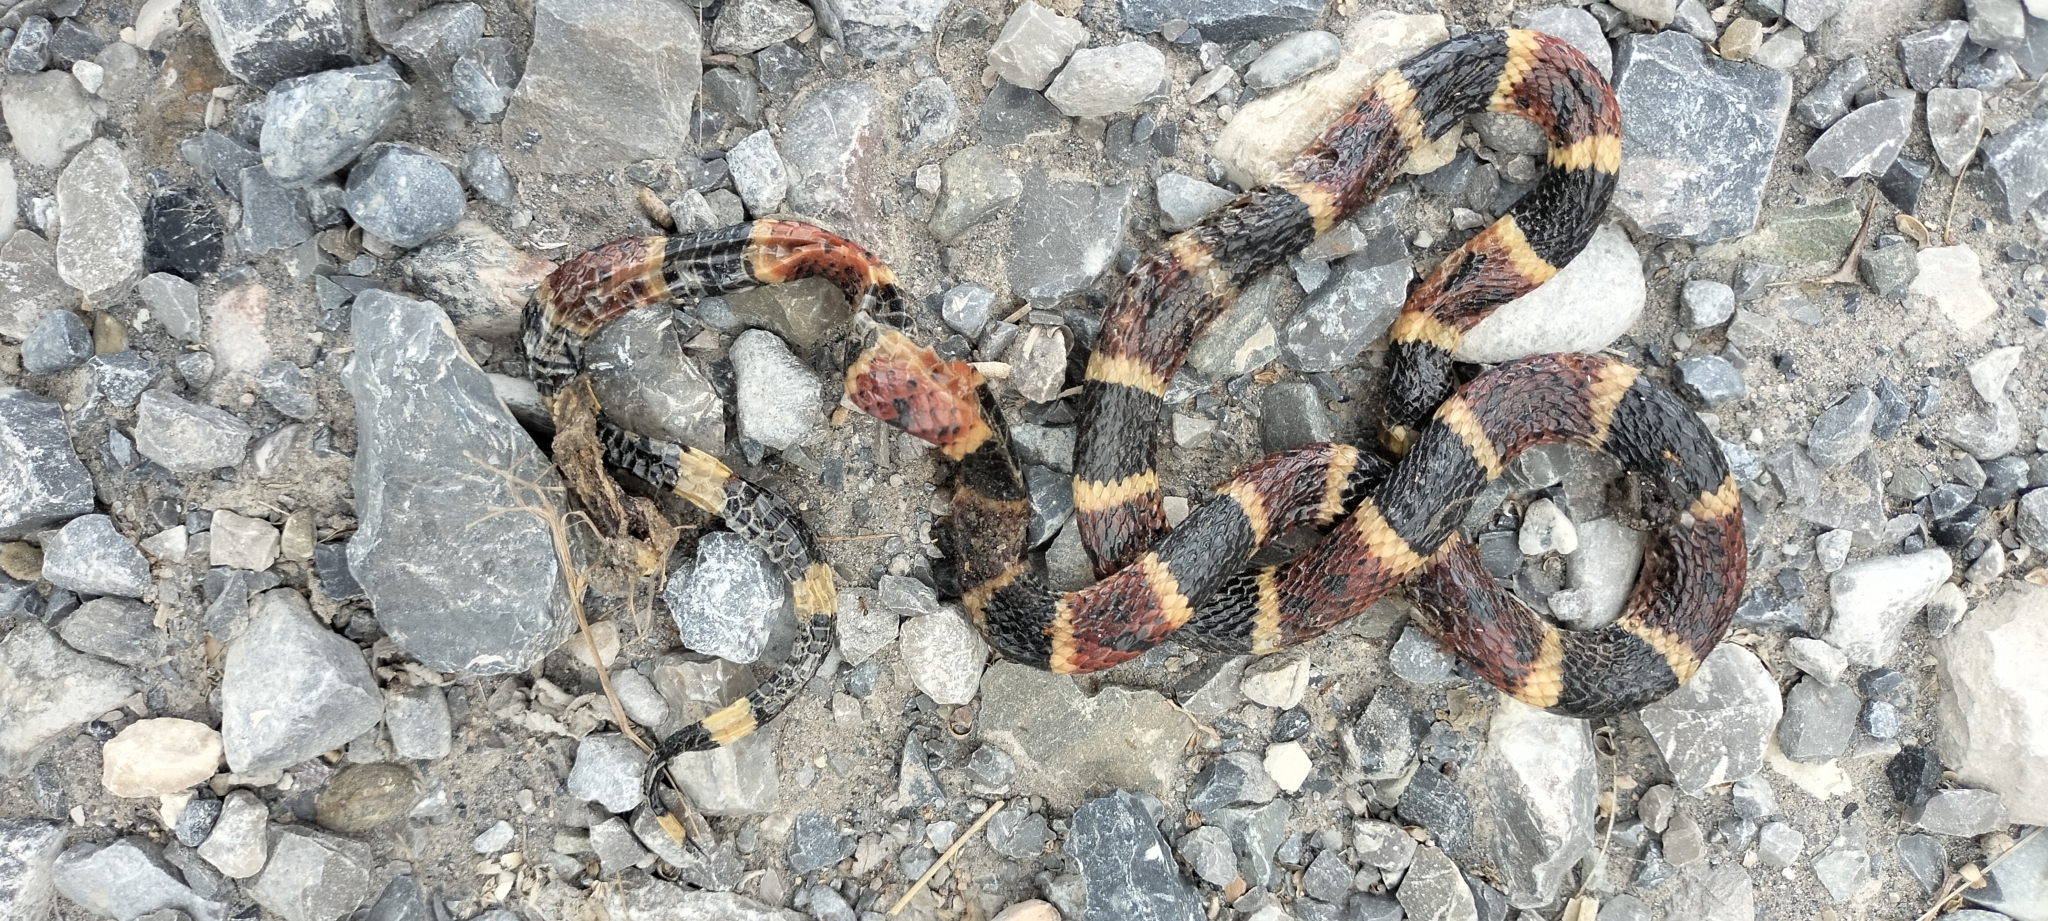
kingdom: Animalia
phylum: Chordata
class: Squamata
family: Elapidae
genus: Micrurus
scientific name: Micrurus tener
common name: Texas coral snake
